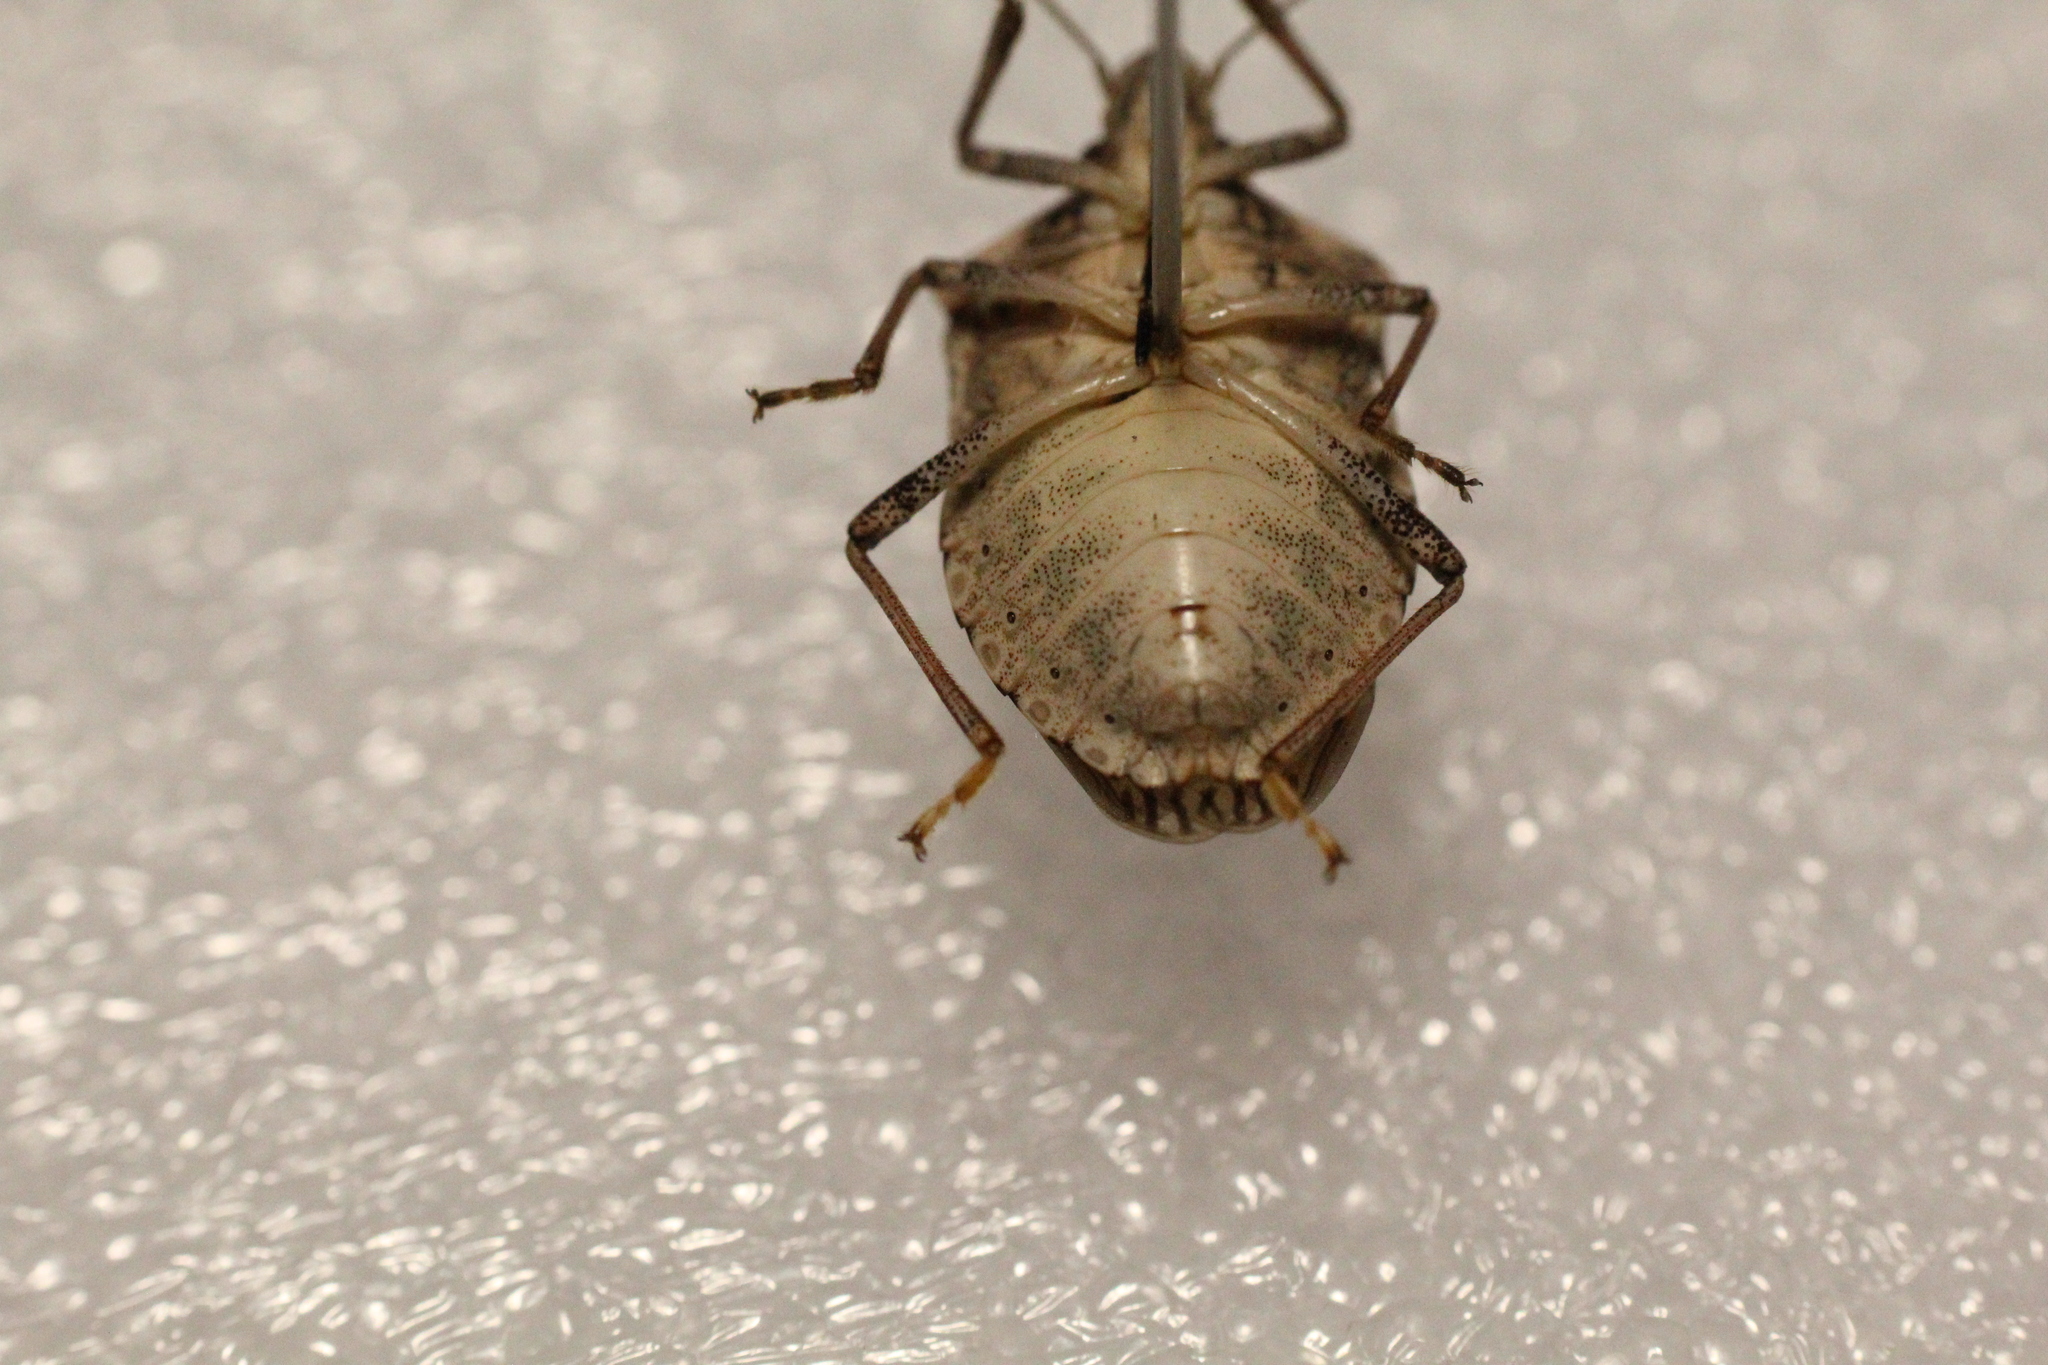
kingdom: Animalia
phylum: Arthropoda
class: Insecta
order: Hemiptera
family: Pentatomidae
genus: Halyomorpha
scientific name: Halyomorpha halys
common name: Brown marmorated stink bug
